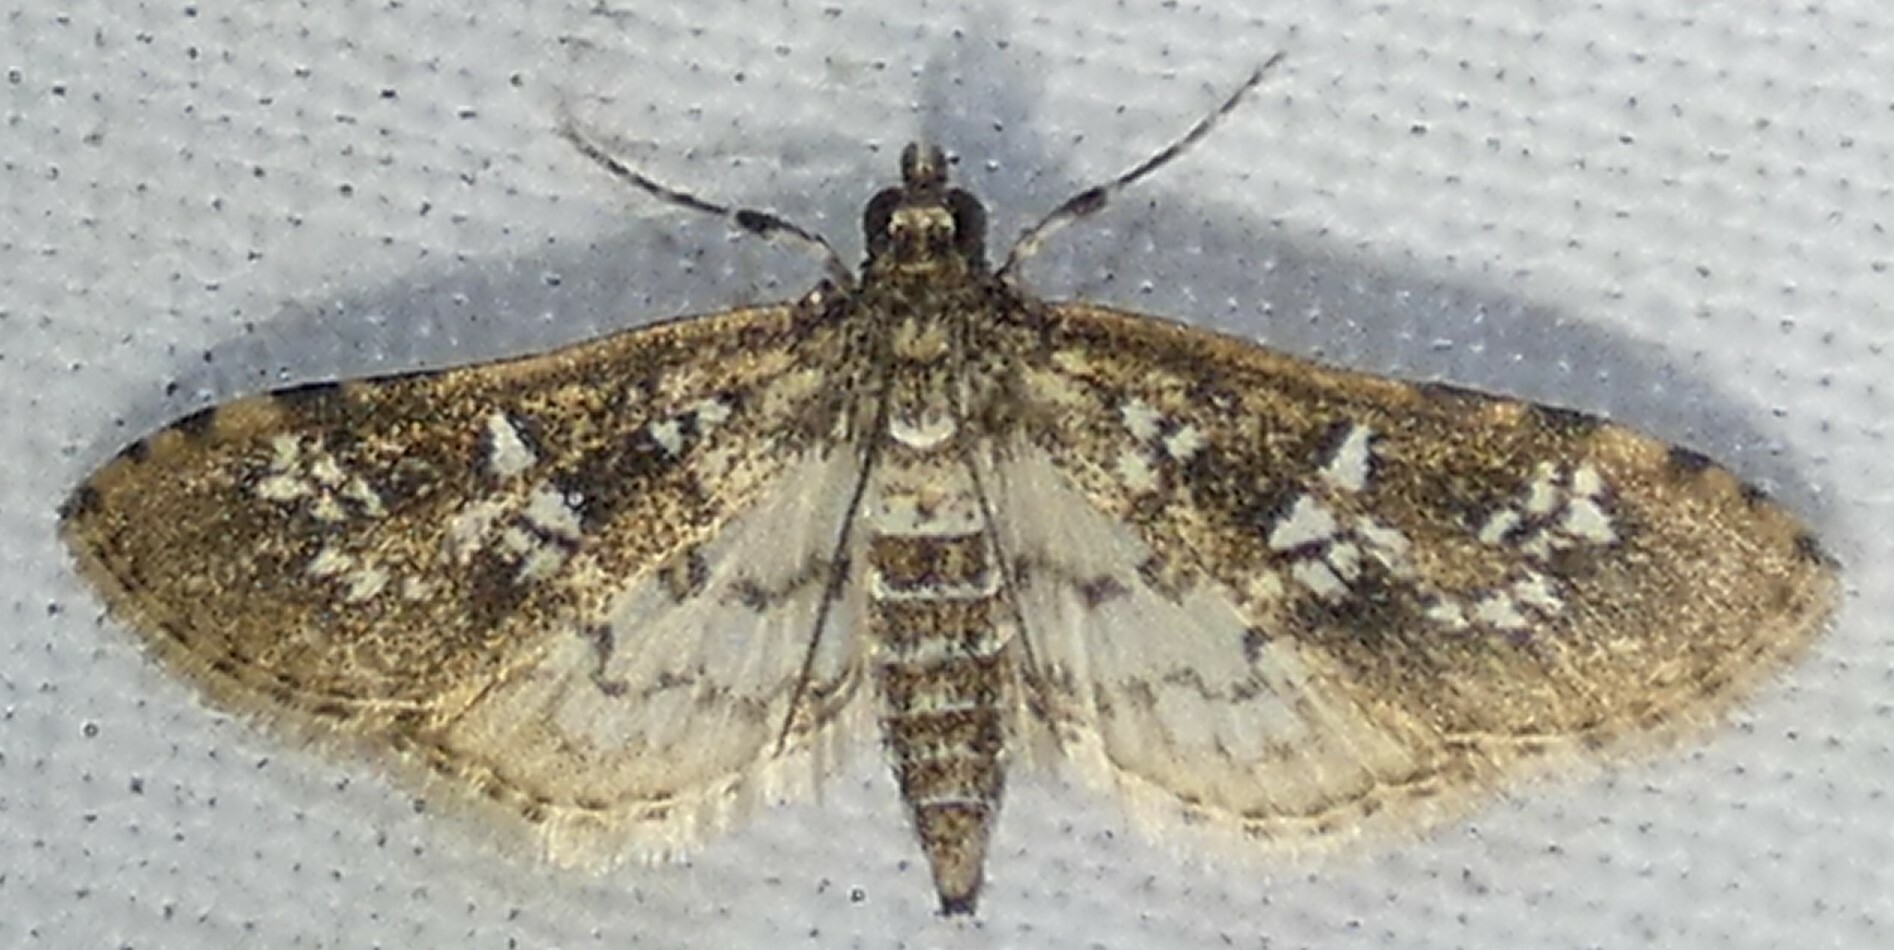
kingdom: Animalia
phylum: Arthropoda
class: Insecta
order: Lepidoptera
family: Crambidae
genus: Samea
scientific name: Samea multiplicalis
